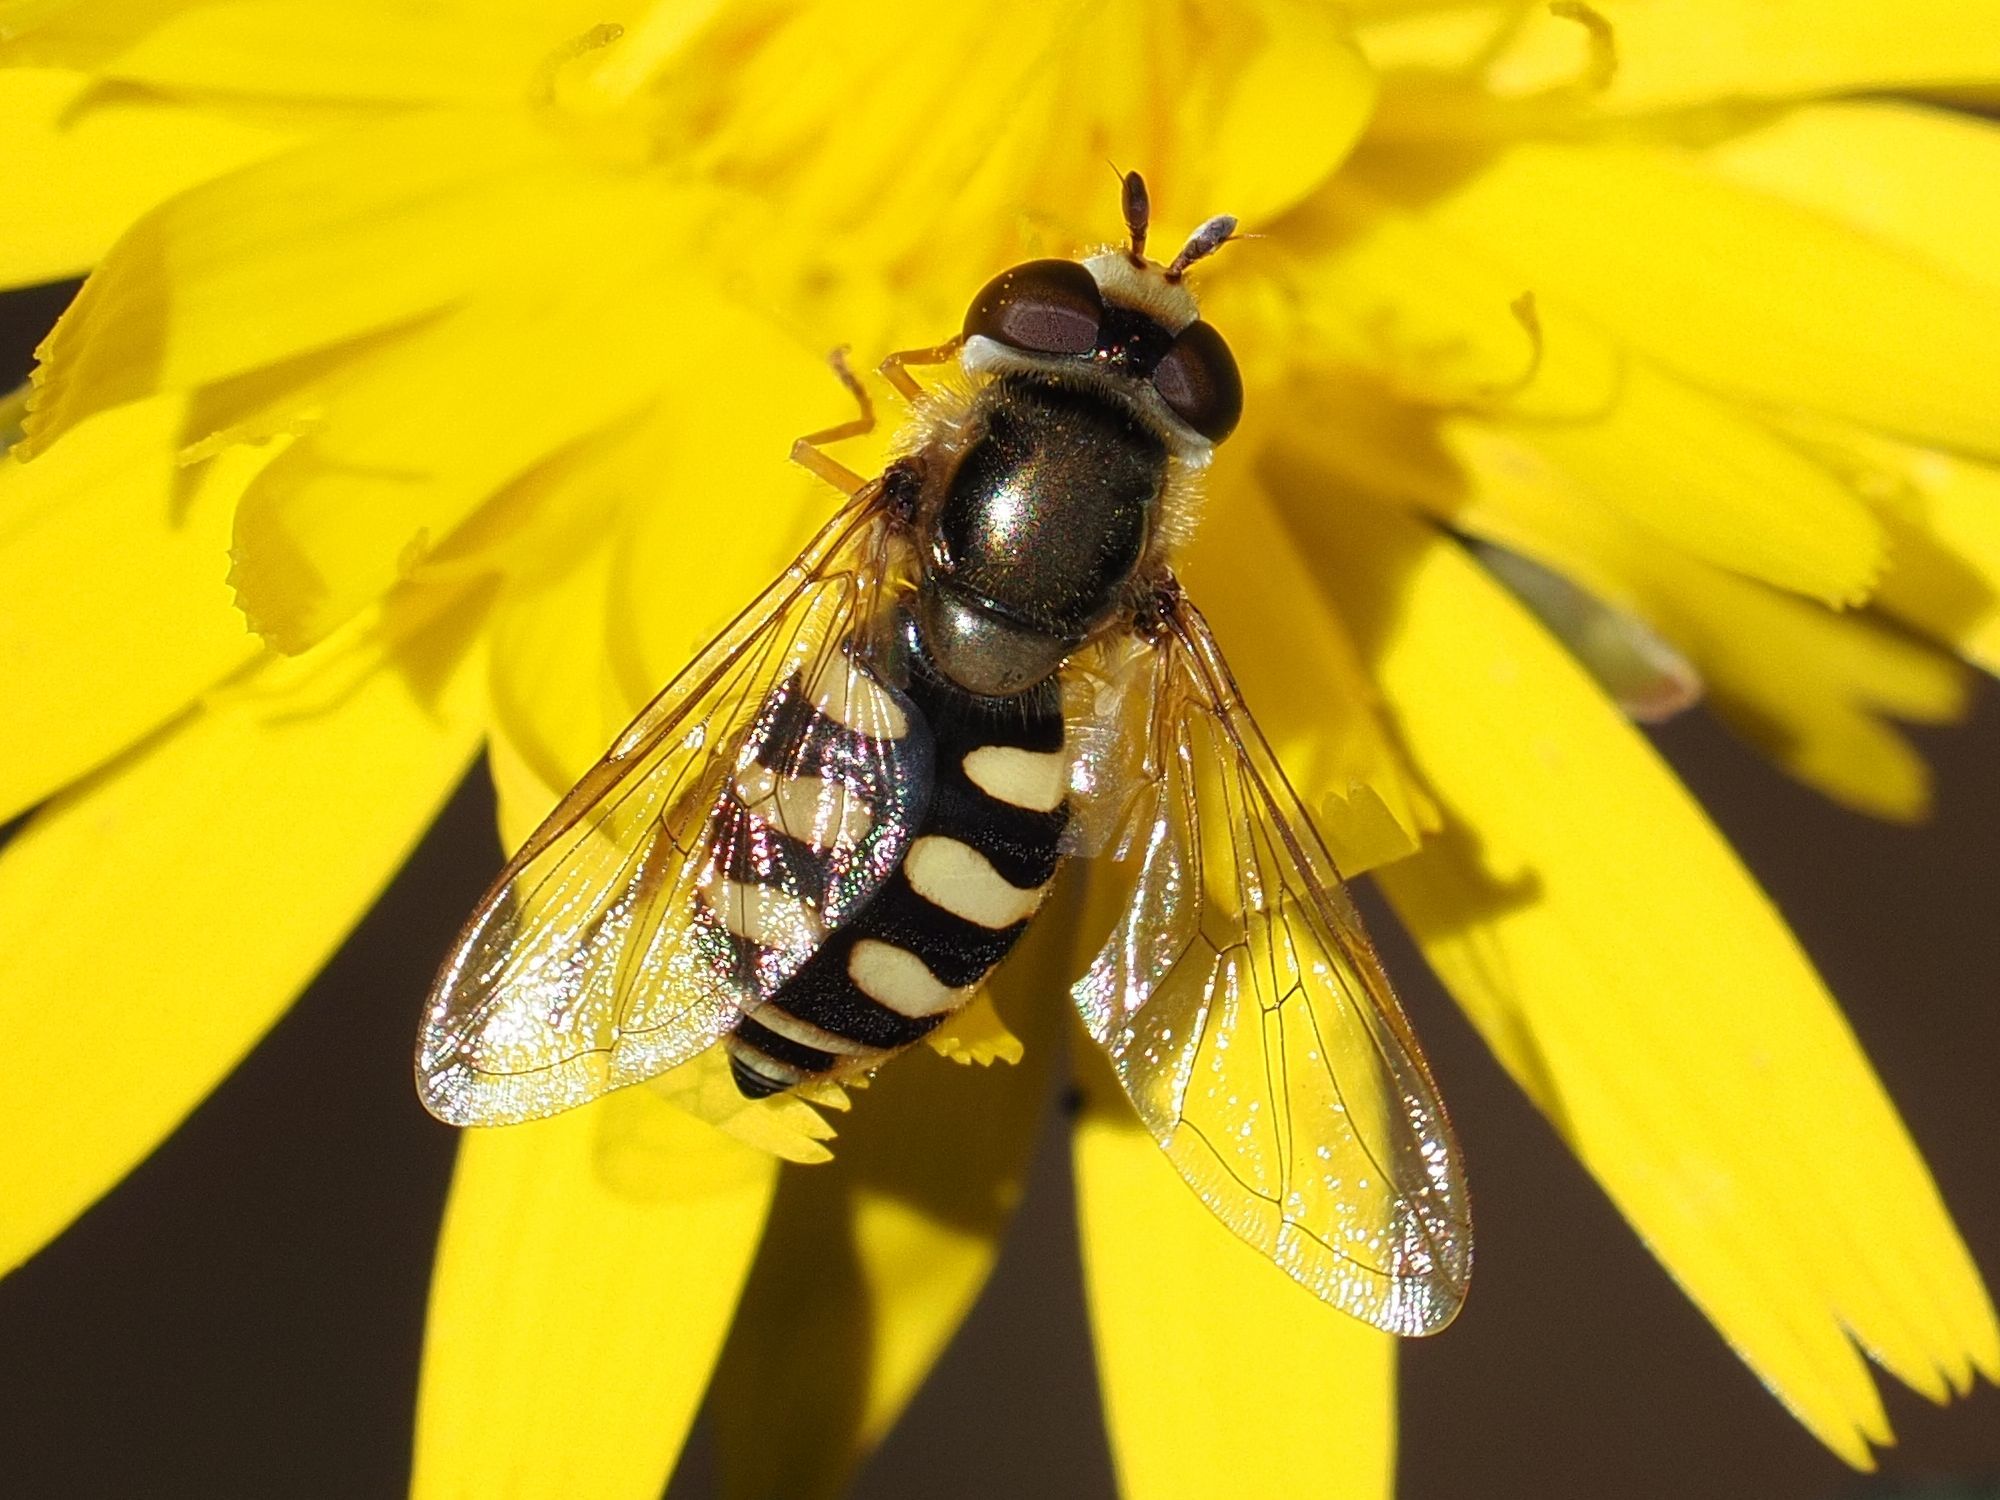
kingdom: Animalia
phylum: Arthropoda
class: Insecta
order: Diptera
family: Syrphidae
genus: Eupeodes
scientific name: Eupeodes corollae
